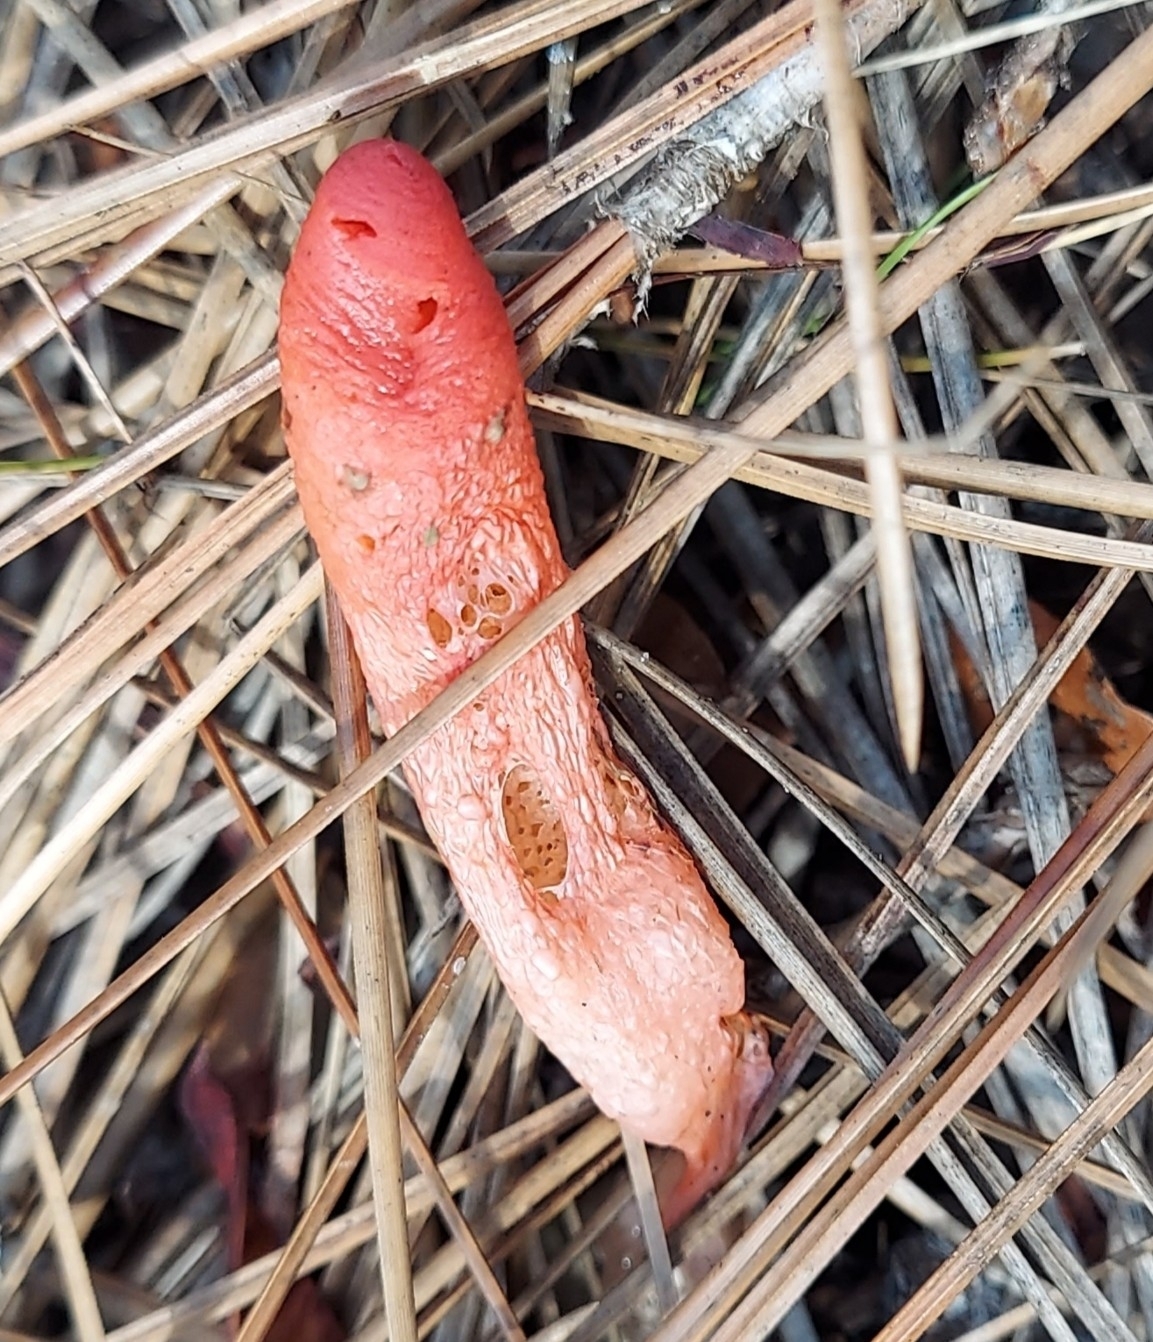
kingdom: Fungi
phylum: Basidiomycota
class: Agaricomycetes
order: Phallales
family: Phallaceae
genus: Mutinus
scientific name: Mutinus elegans
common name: Devil's dipstick
